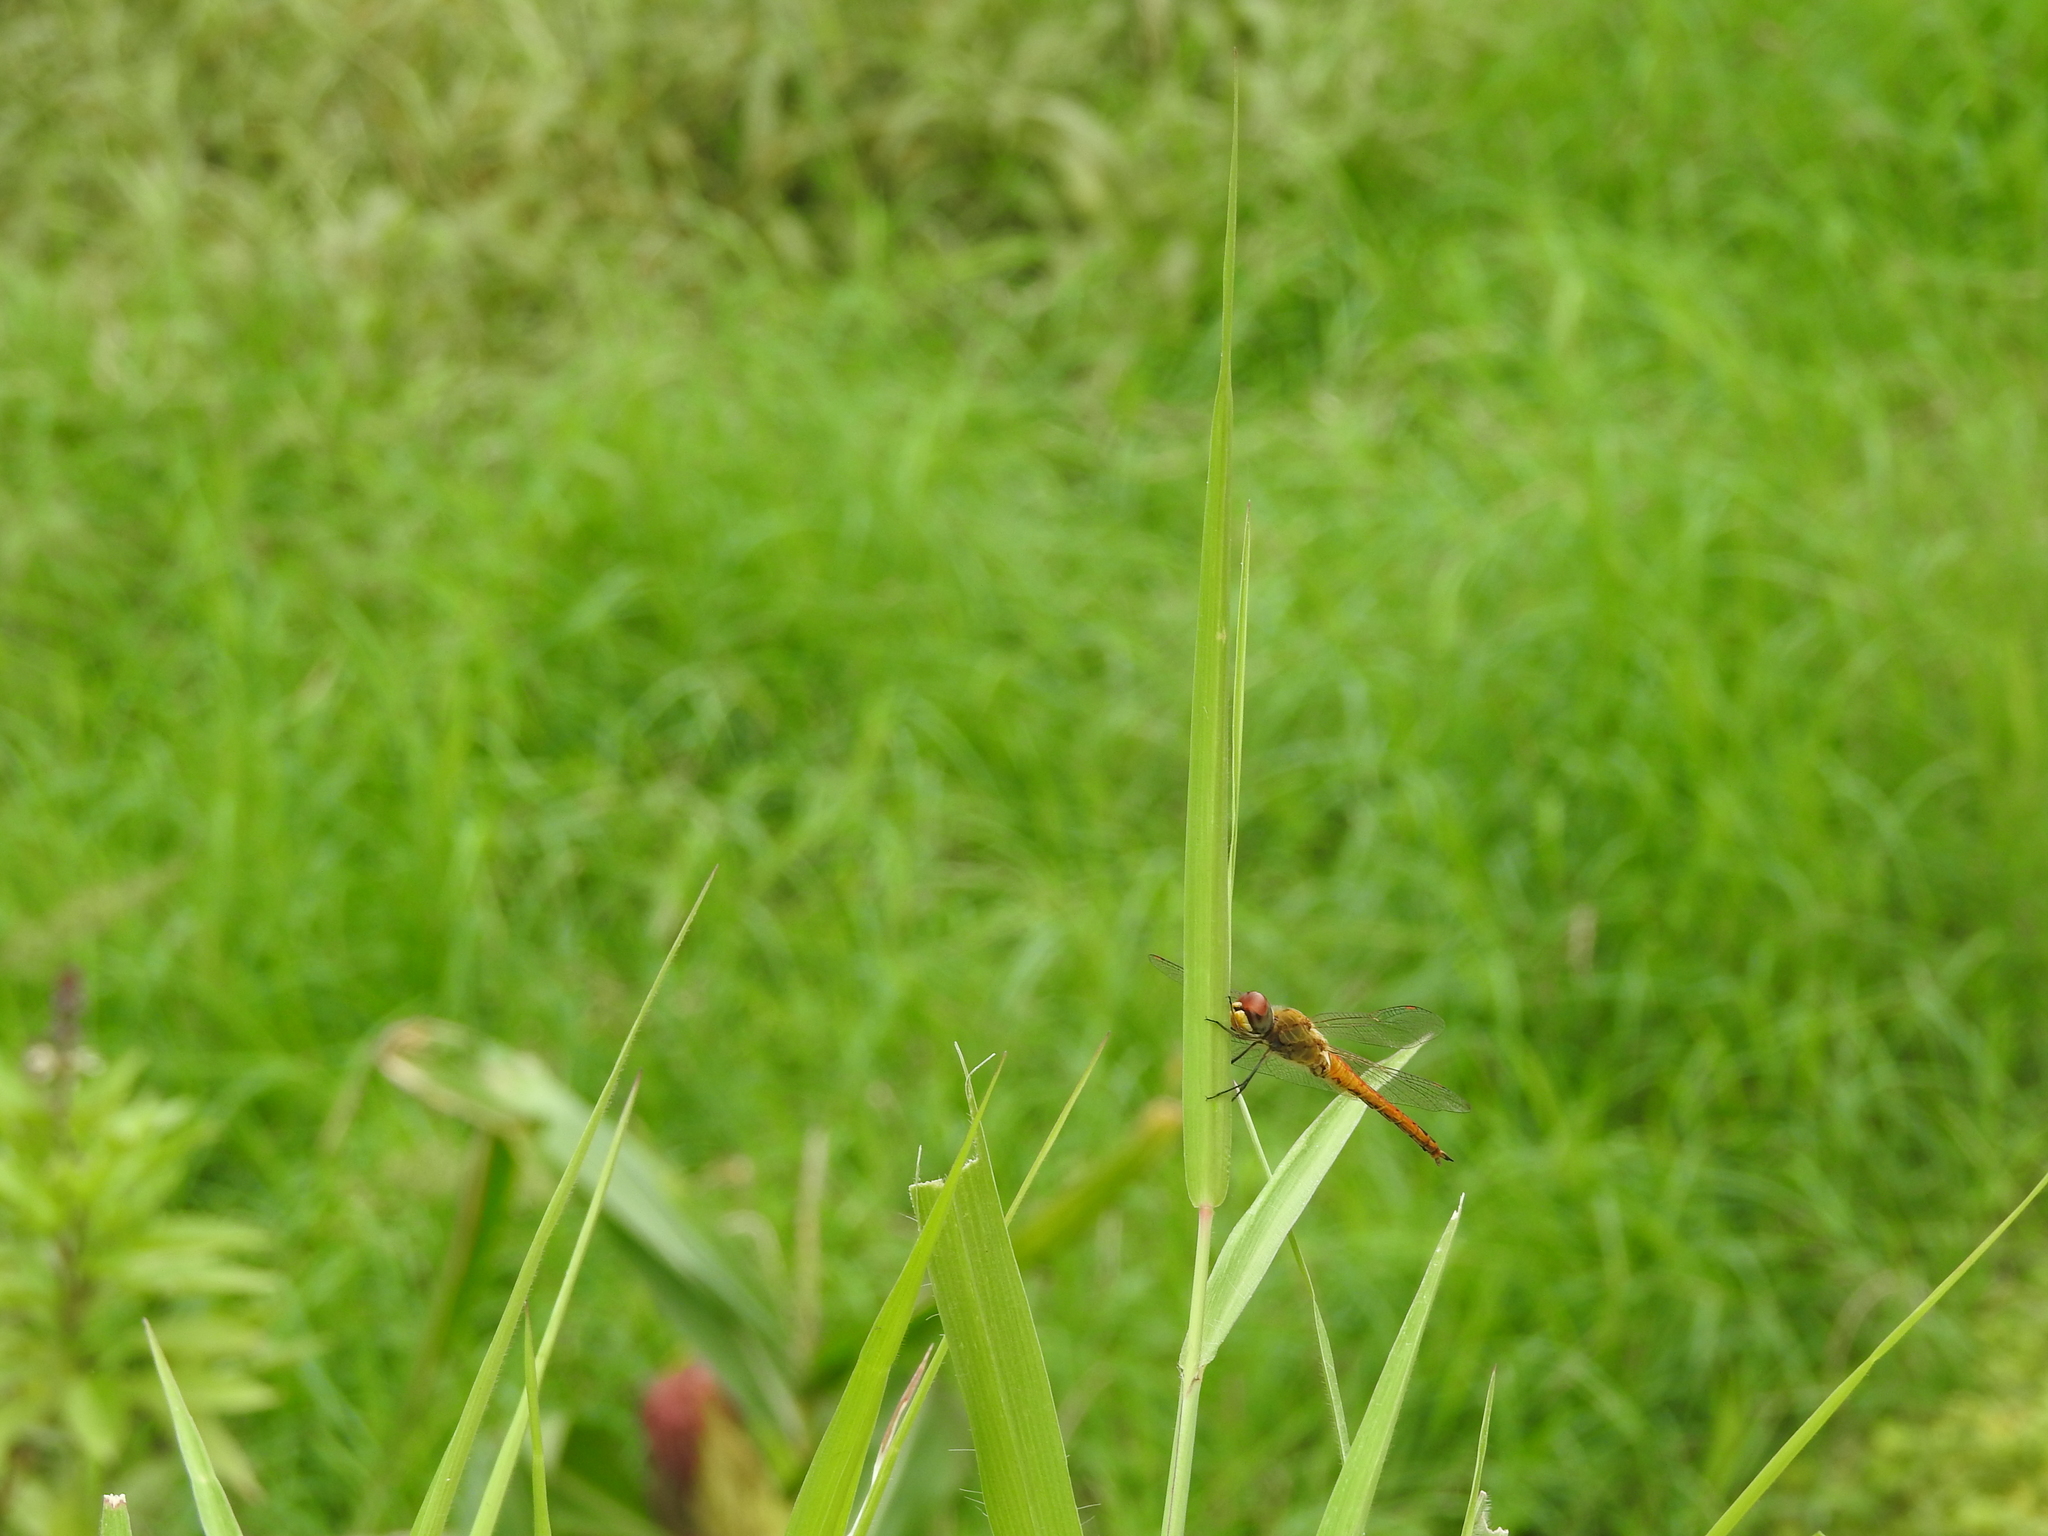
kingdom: Animalia
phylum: Arthropoda
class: Insecta
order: Odonata
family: Libellulidae
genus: Pantala
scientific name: Pantala flavescens
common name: Wandering glider
